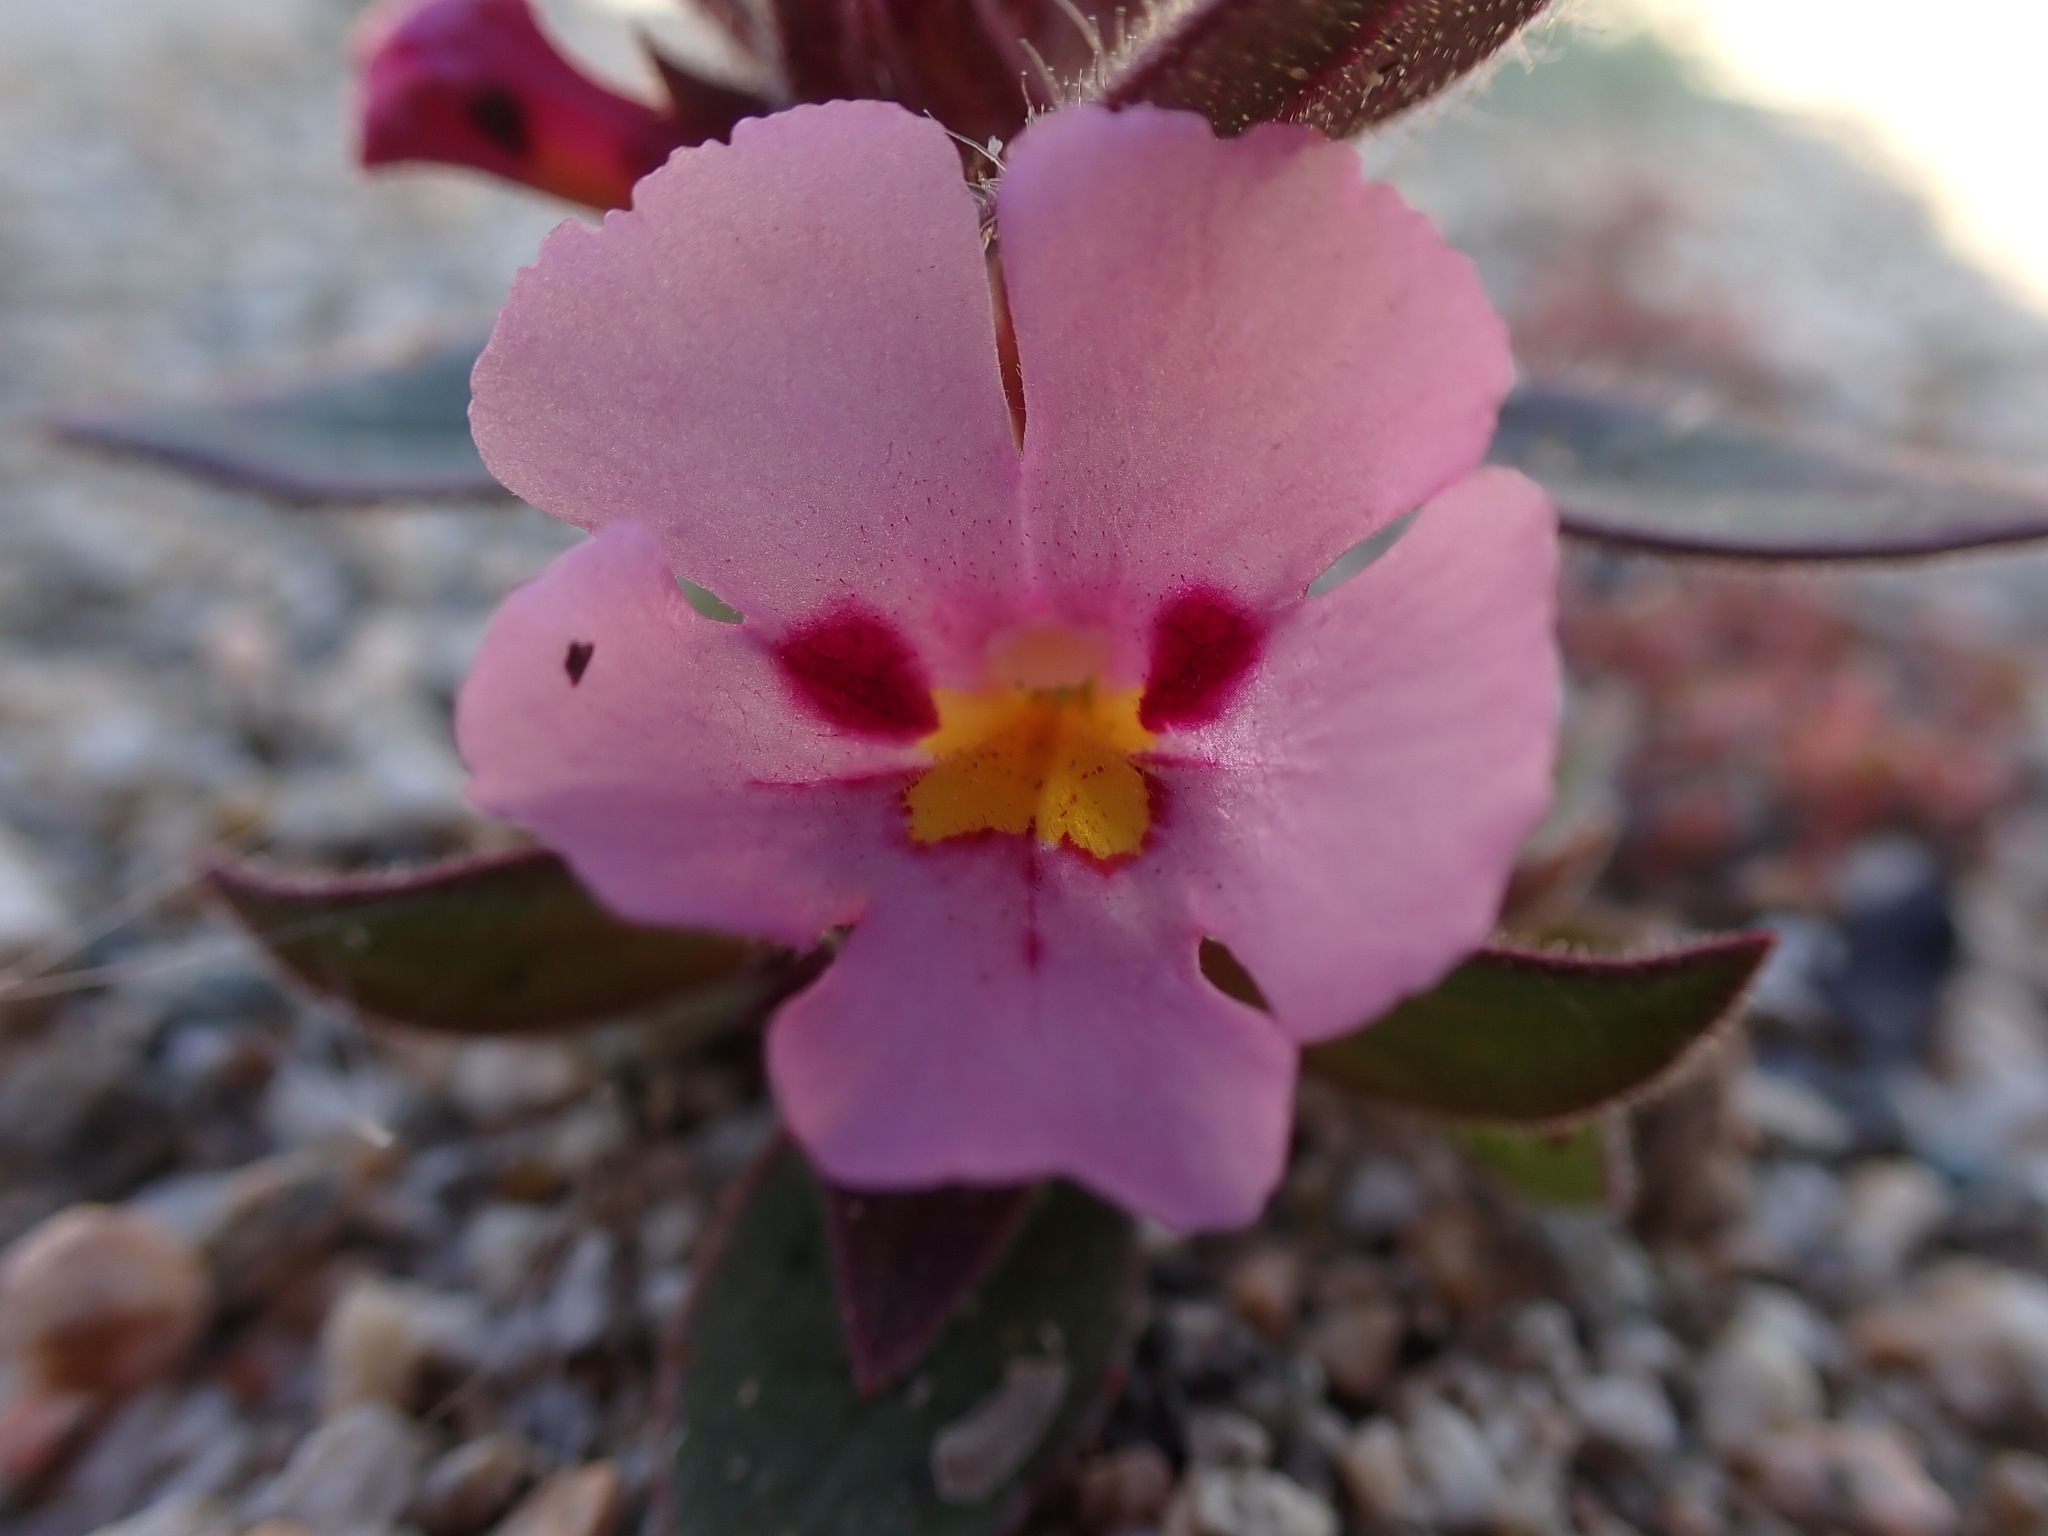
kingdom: Plantae
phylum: Tracheophyta
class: Magnoliopsida
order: Lamiales
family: Phrymaceae
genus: Diplacus
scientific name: Diplacus bigelovii
